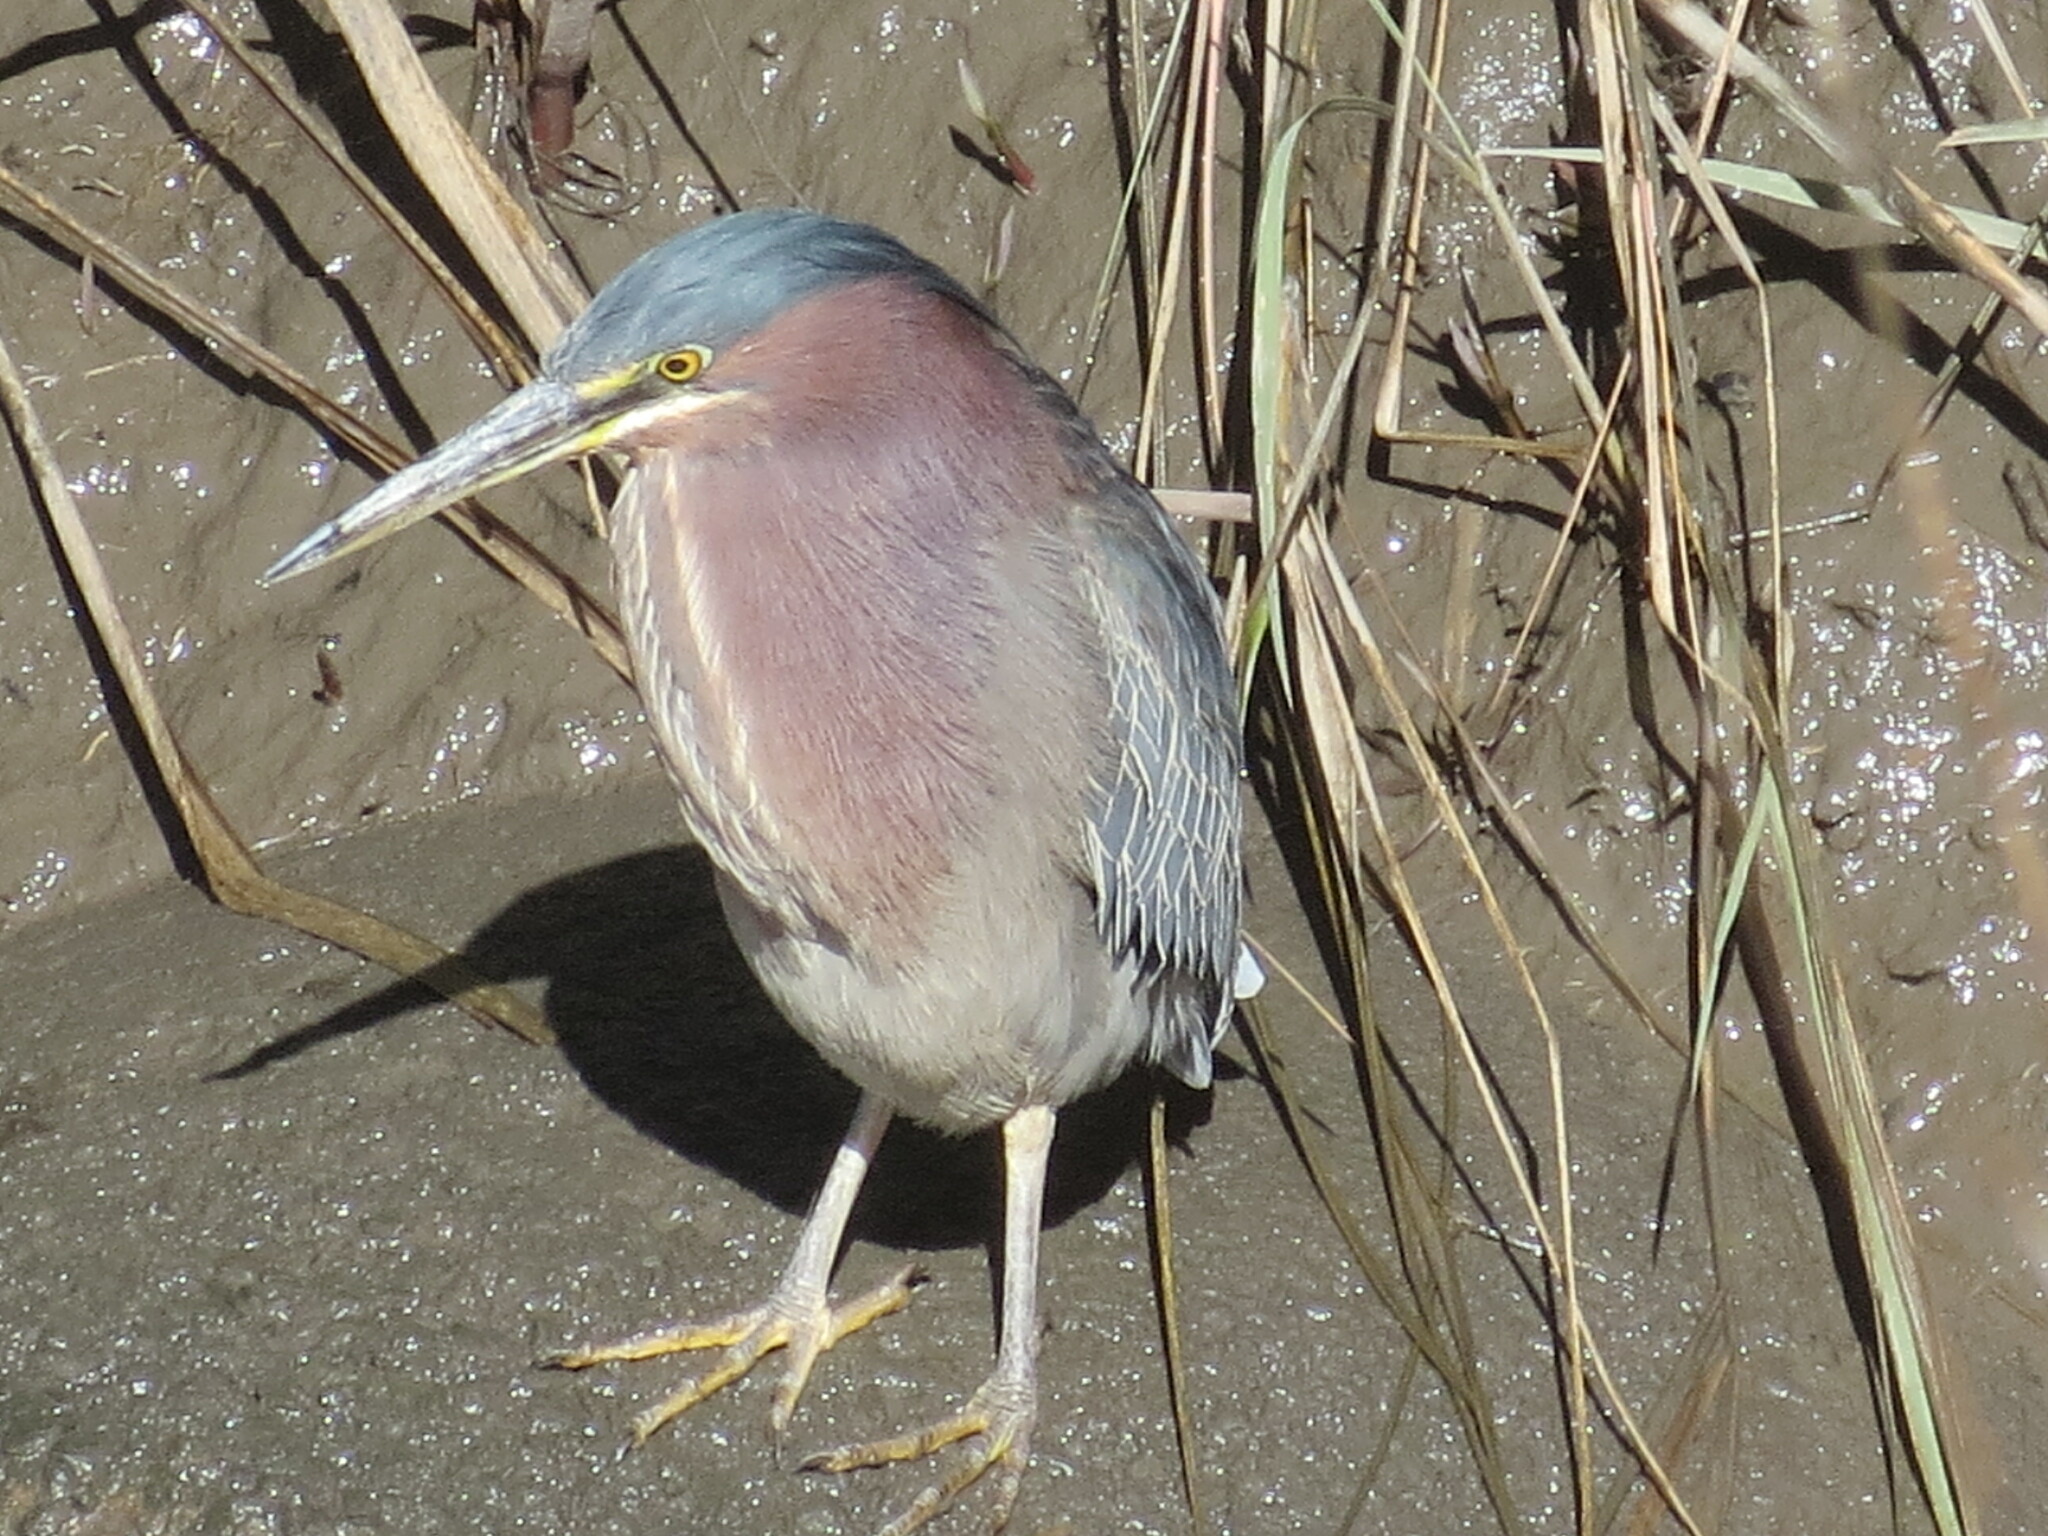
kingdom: Animalia
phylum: Chordata
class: Aves
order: Pelecaniformes
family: Ardeidae
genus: Butorides
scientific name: Butorides virescens
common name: Green heron
